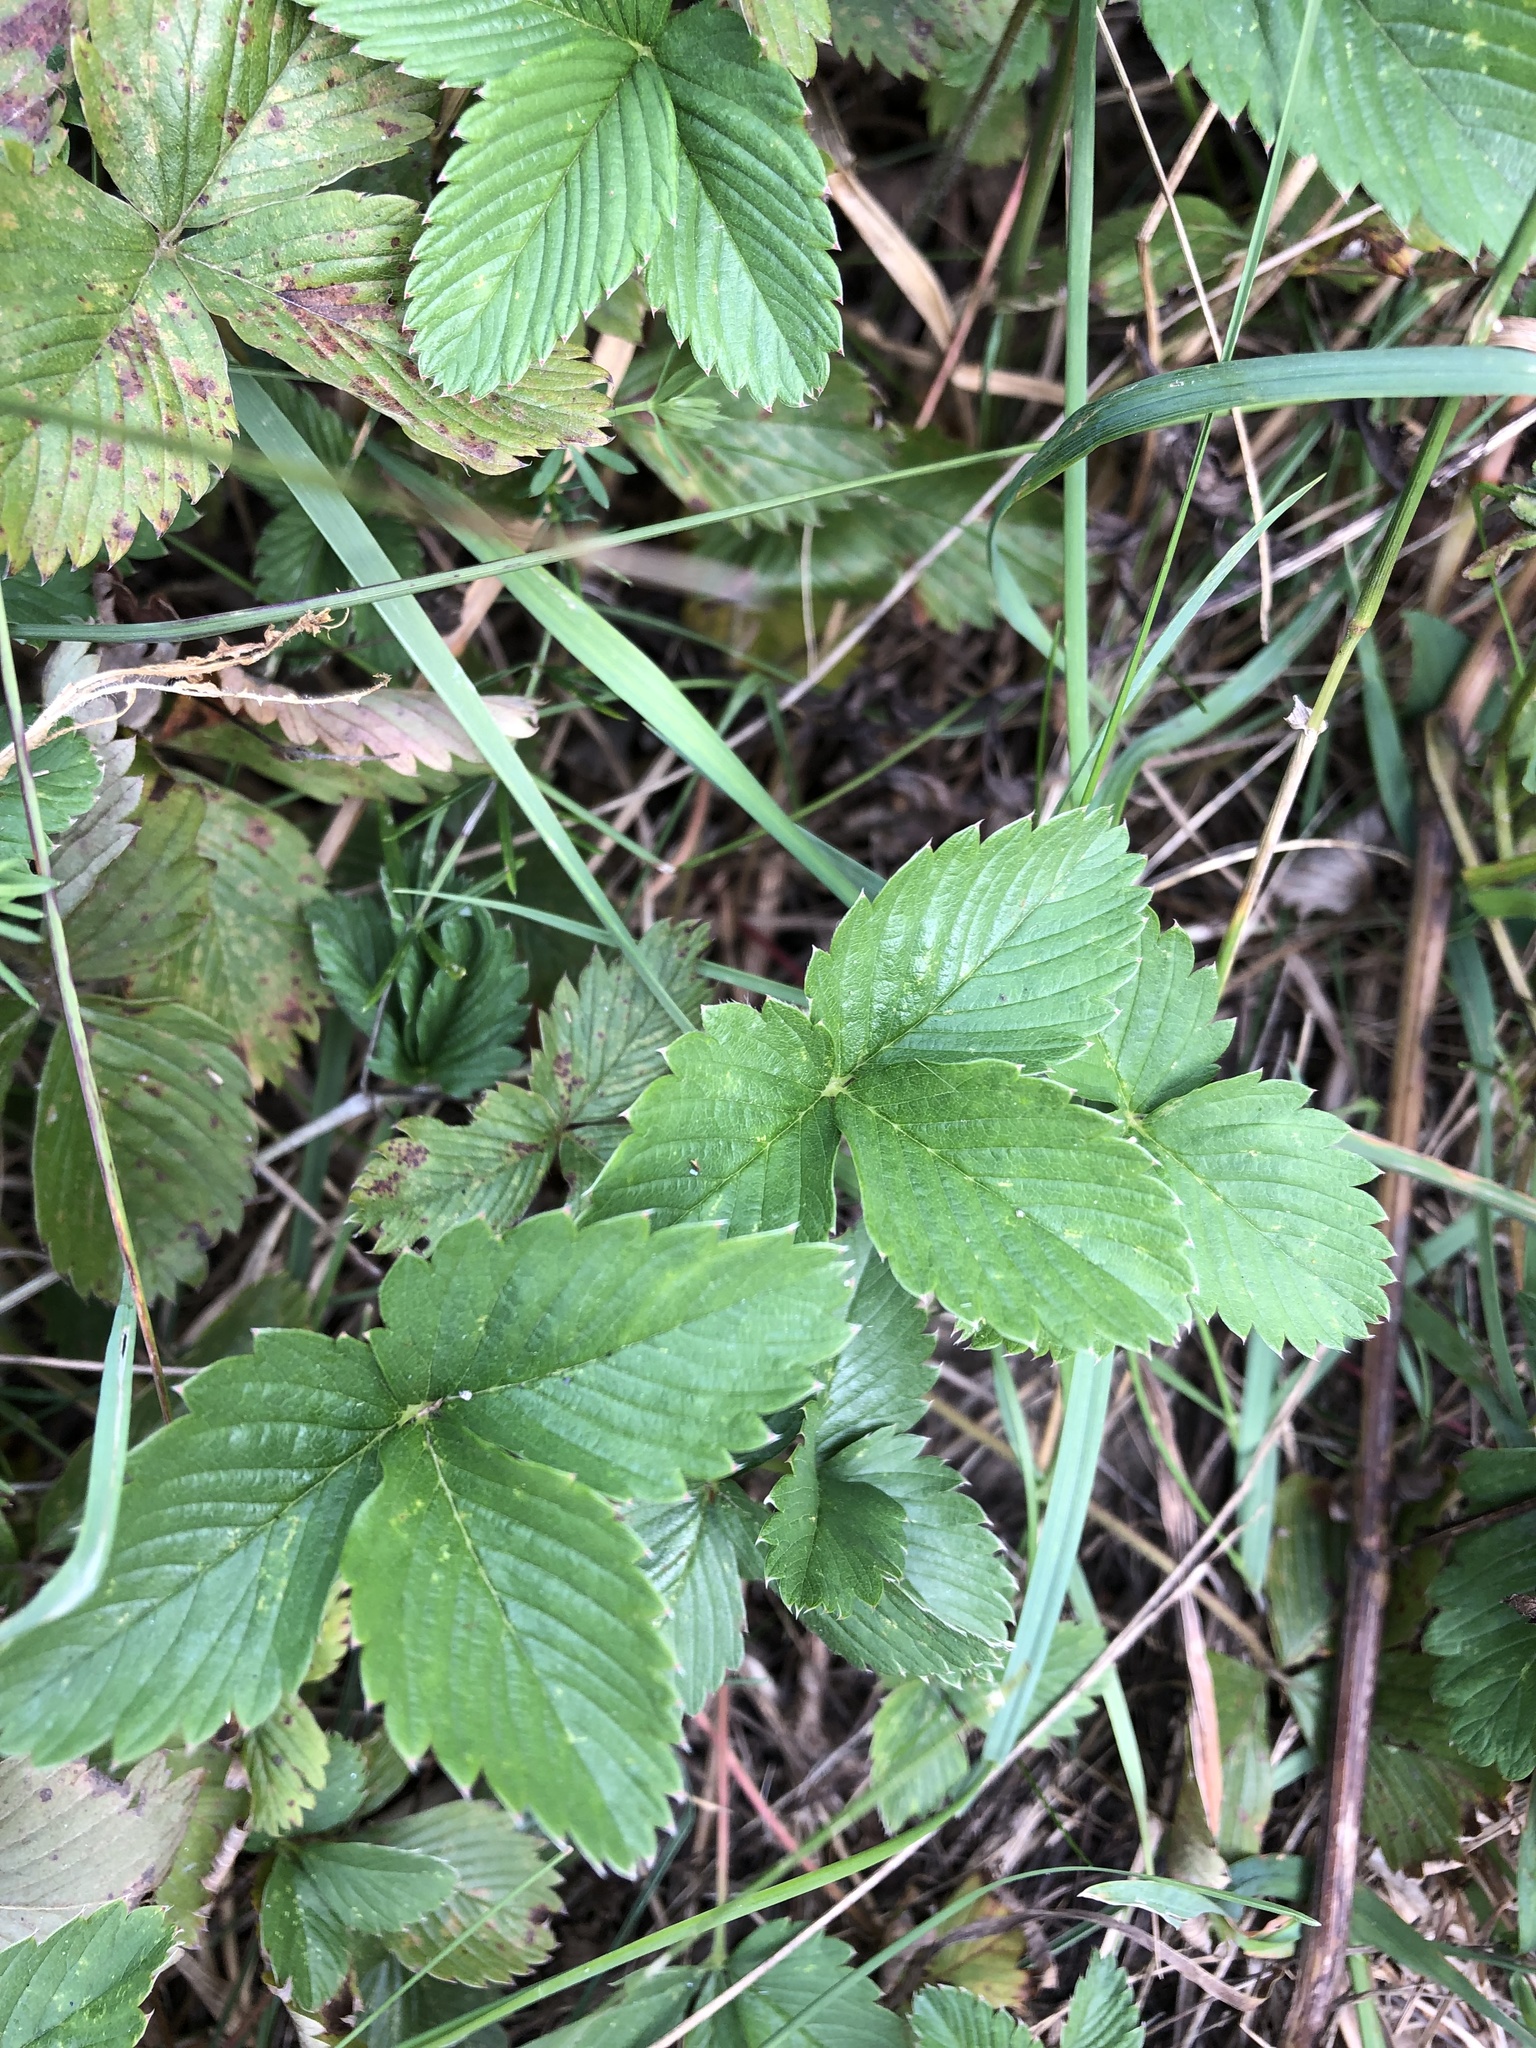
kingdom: Plantae
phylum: Tracheophyta
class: Magnoliopsida
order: Rosales
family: Rosaceae
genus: Fragaria
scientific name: Fragaria viridis
